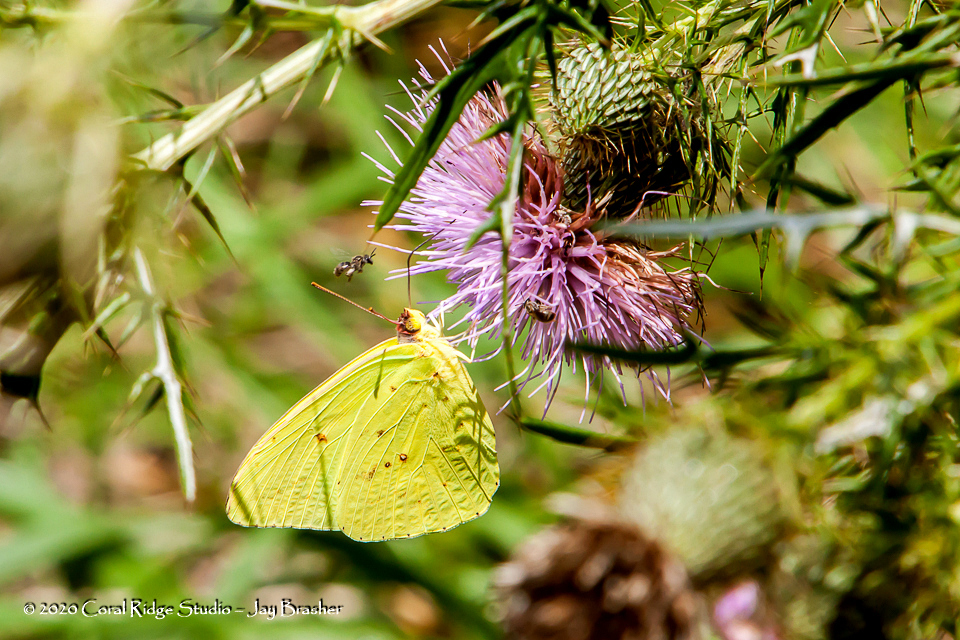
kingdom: Animalia
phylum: Arthropoda
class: Insecta
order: Lepidoptera
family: Pieridae
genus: Phoebis
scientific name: Phoebis sennae
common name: Cloudless sulphur
